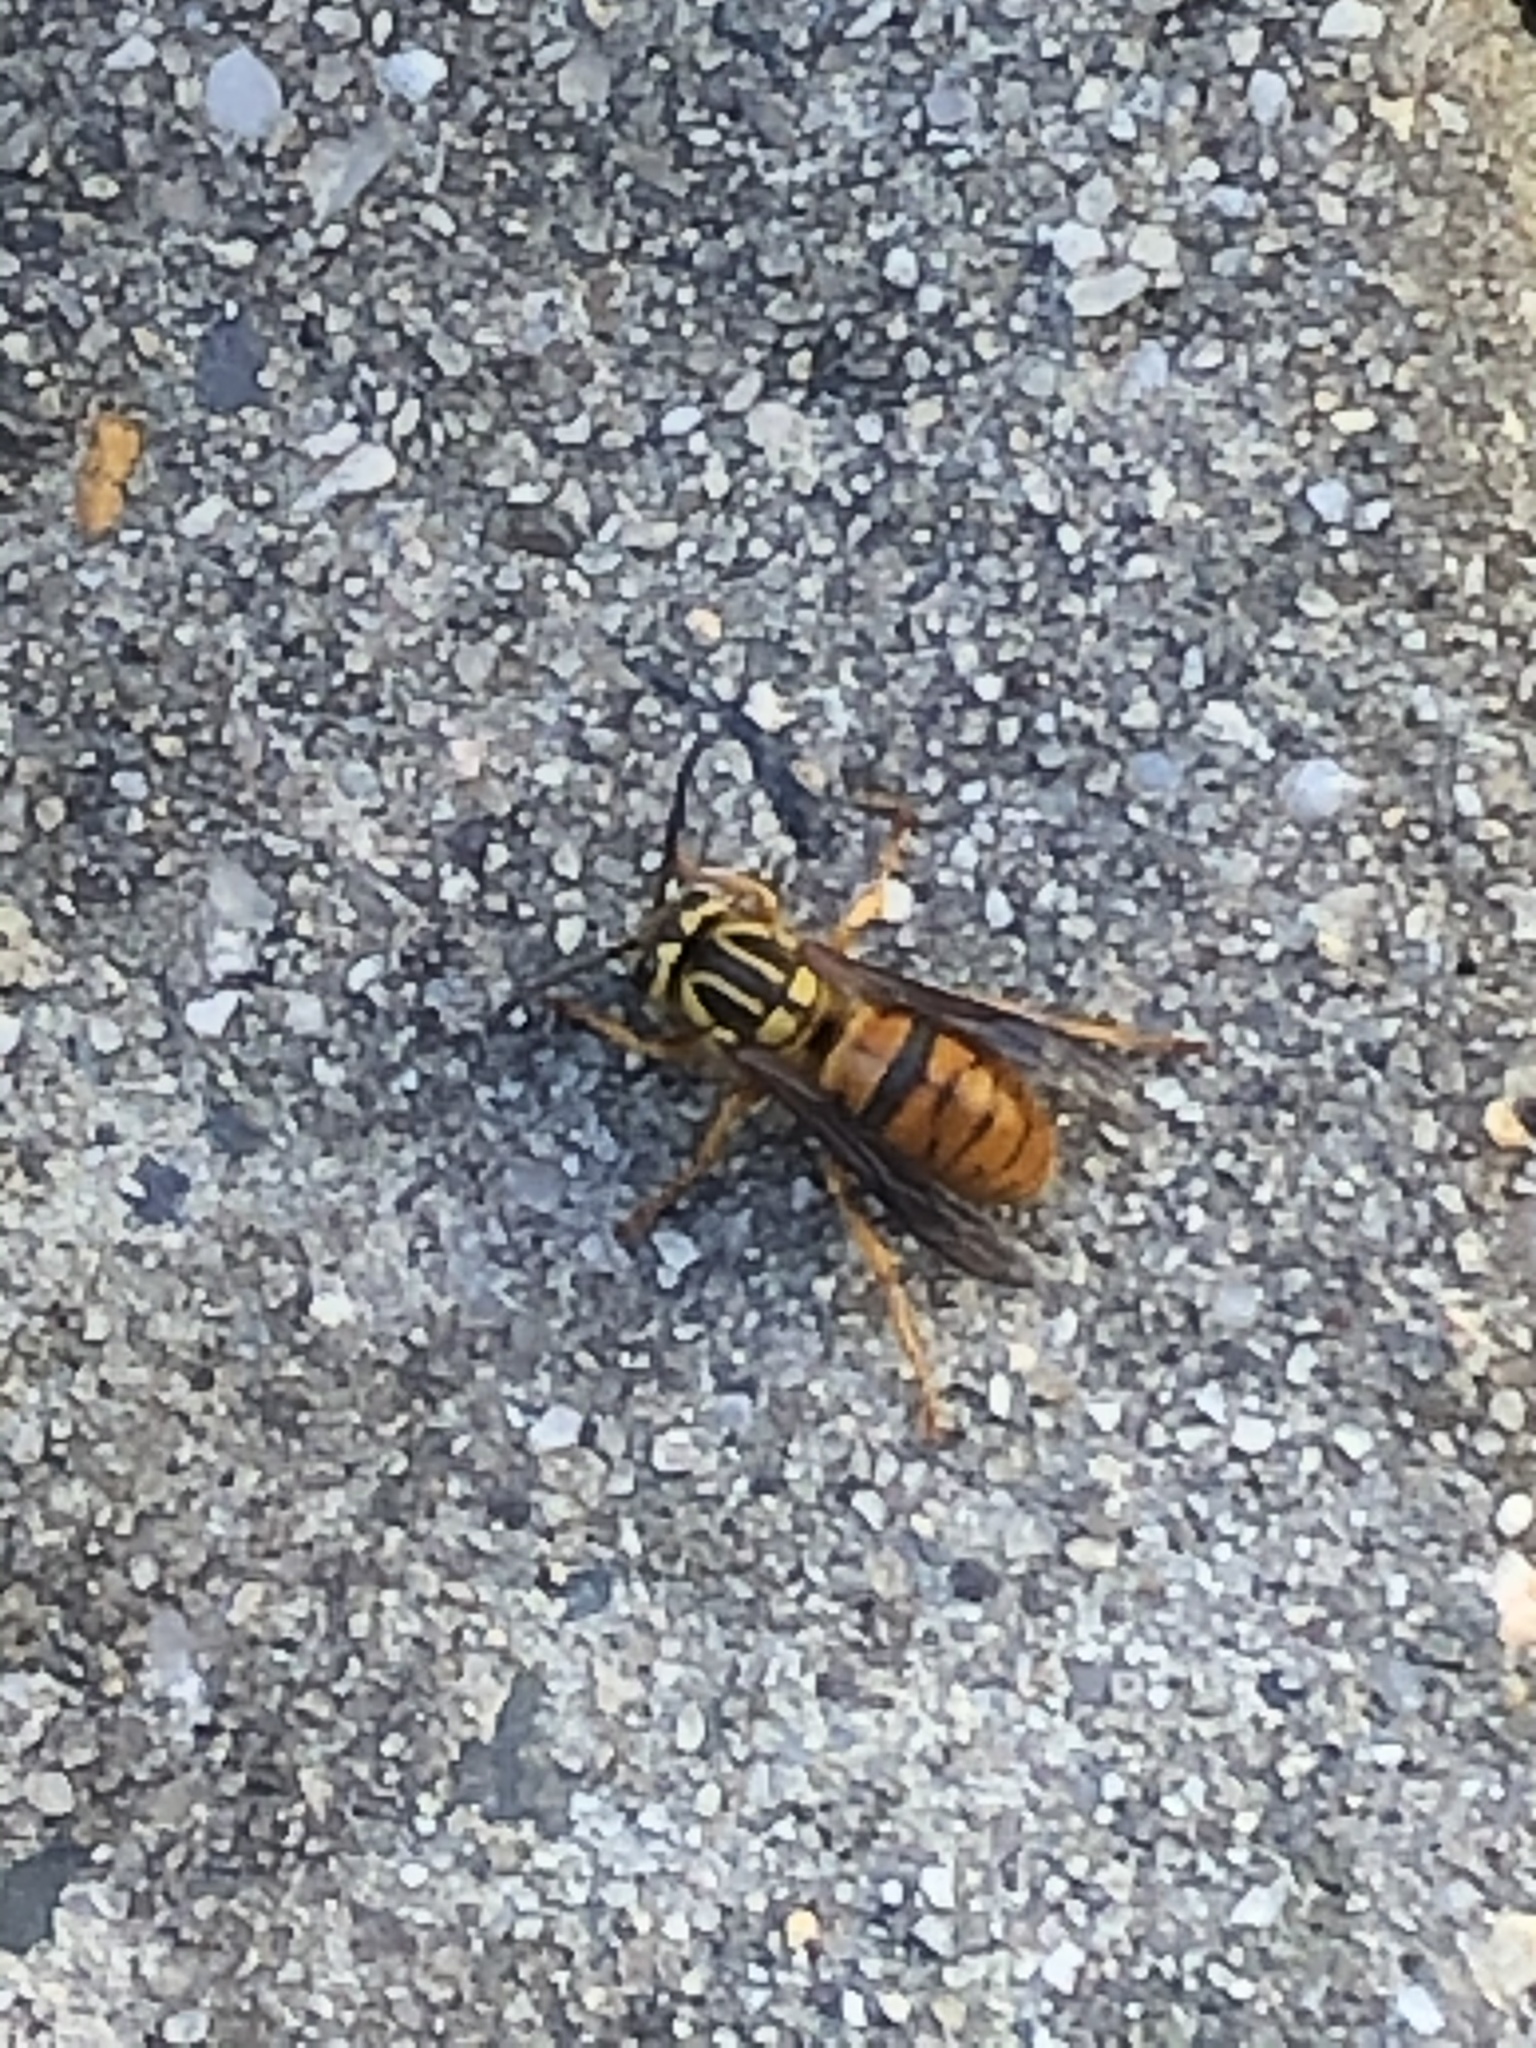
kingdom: Animalia
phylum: Arthropoda
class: Insecta
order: Hymenoptera
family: Vespidae
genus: Vespula
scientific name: Vespula squamosa
